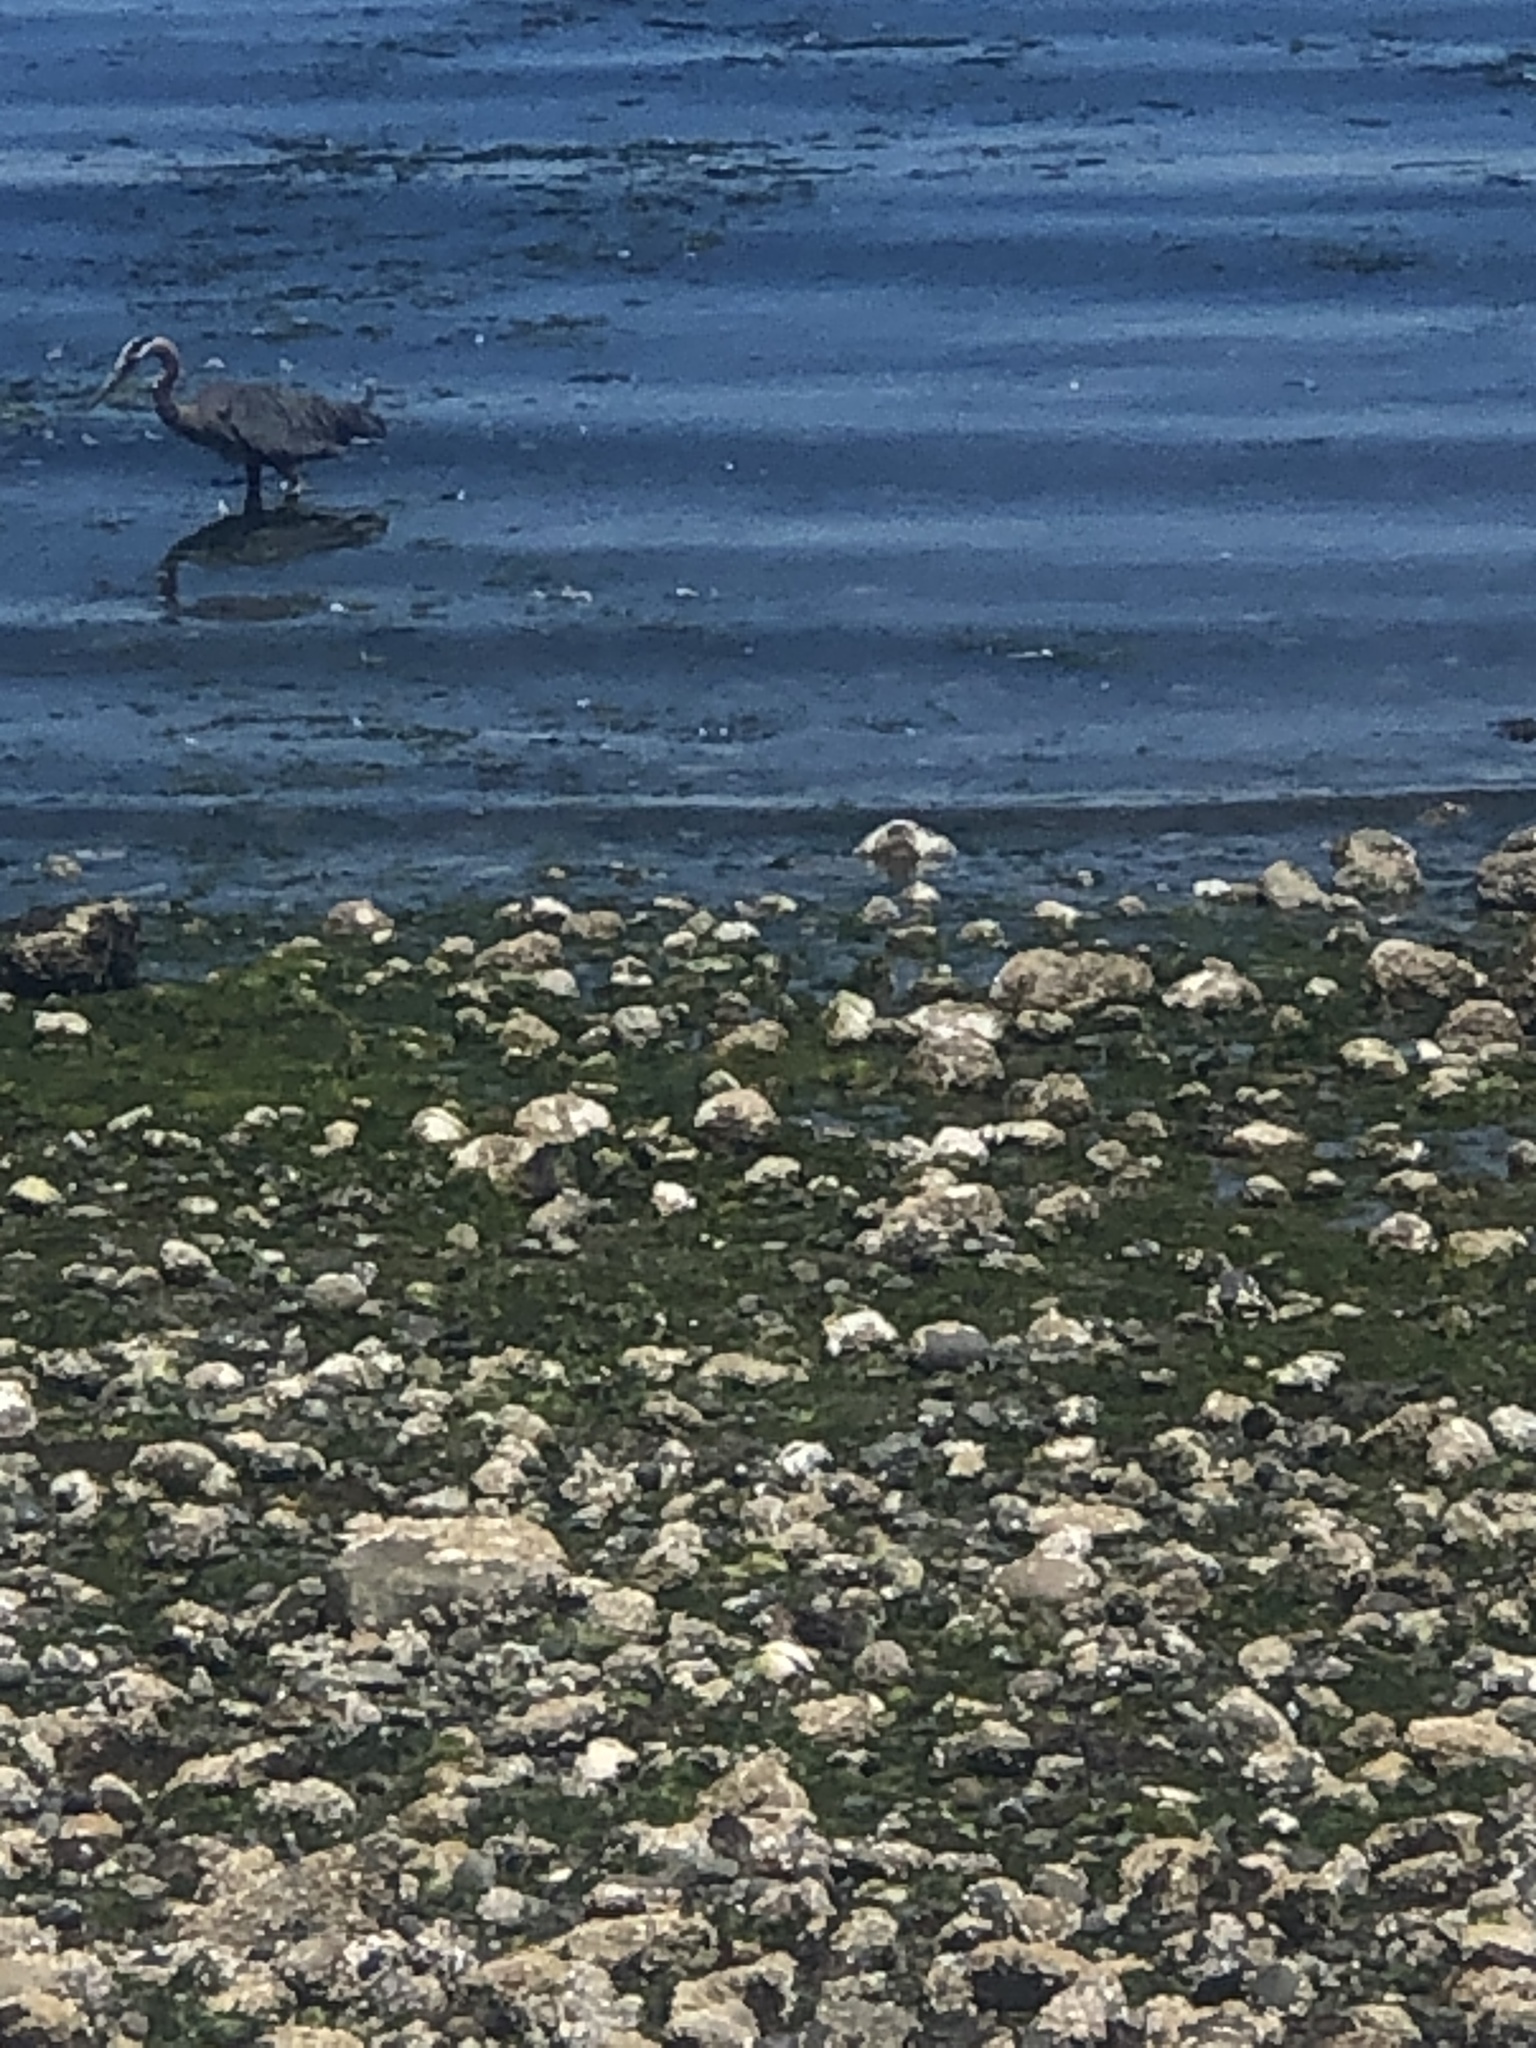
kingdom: Animalia
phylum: Chordata
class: Aves
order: Pelecaniformes
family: Ardeidae
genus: Ardea
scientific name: Ardea herodias
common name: Great blue heron
